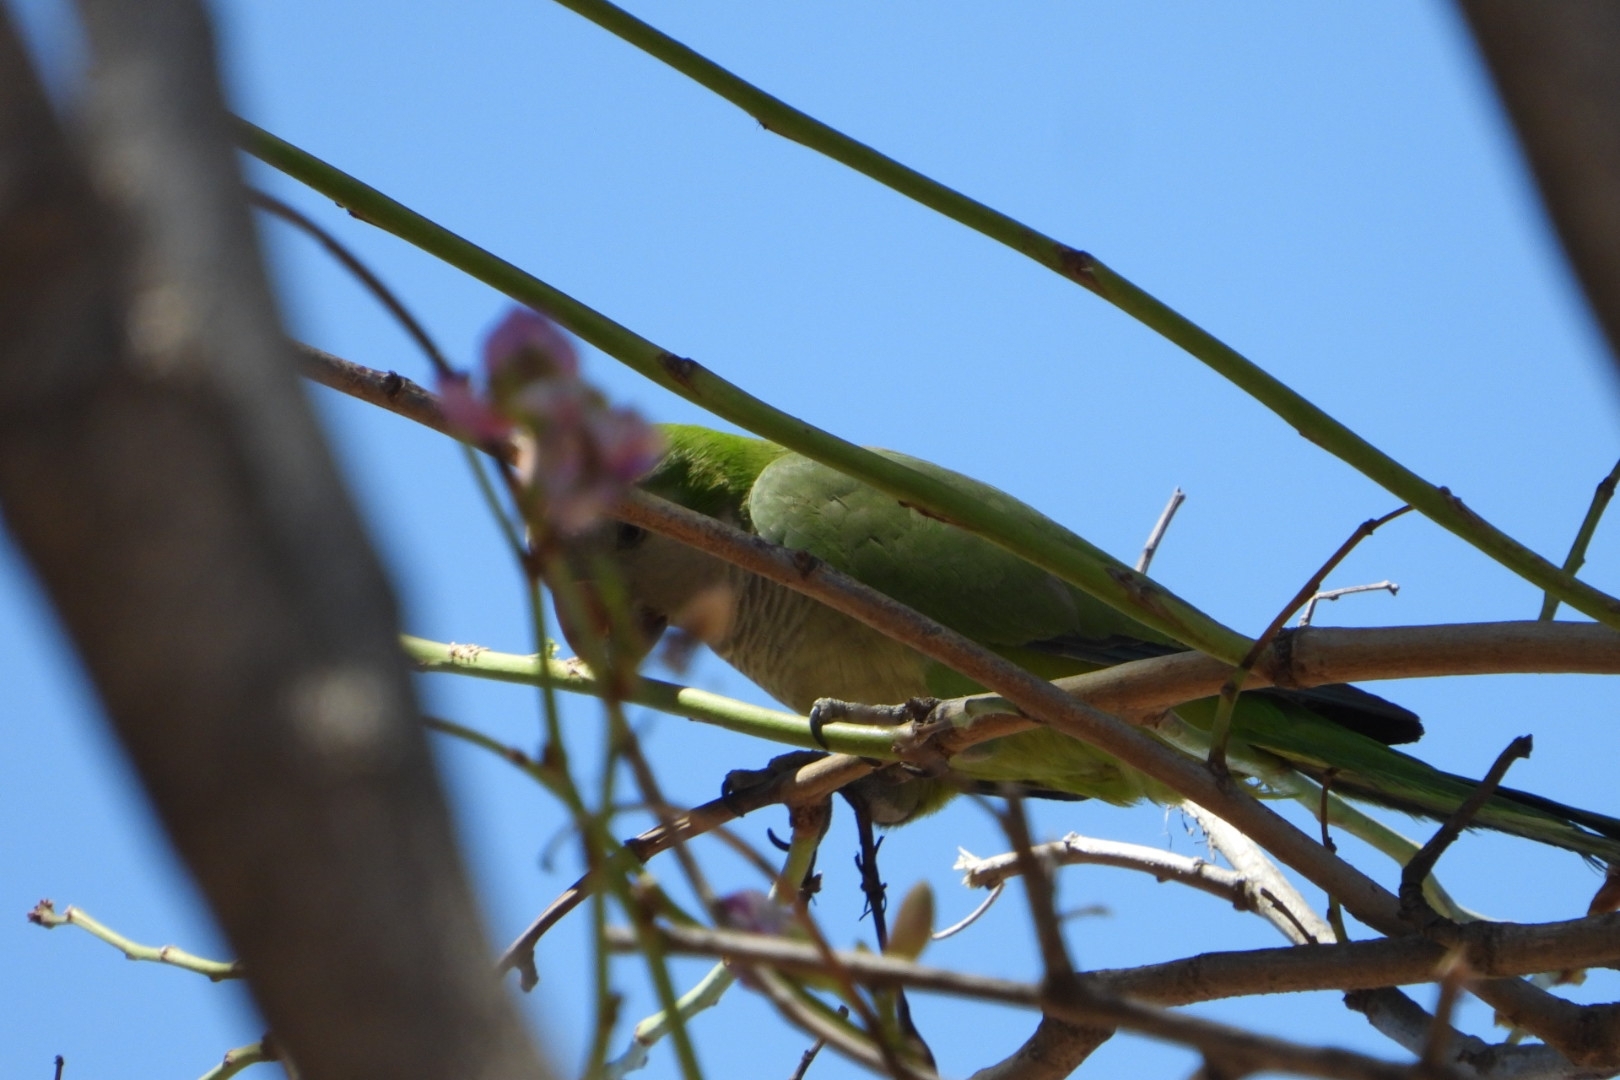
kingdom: Animalia
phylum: Chordata
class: Aves
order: Psittaciformes
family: Psittacidae
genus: Myiopsitta
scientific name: Myiopsitta monachus
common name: Monk parakeet
